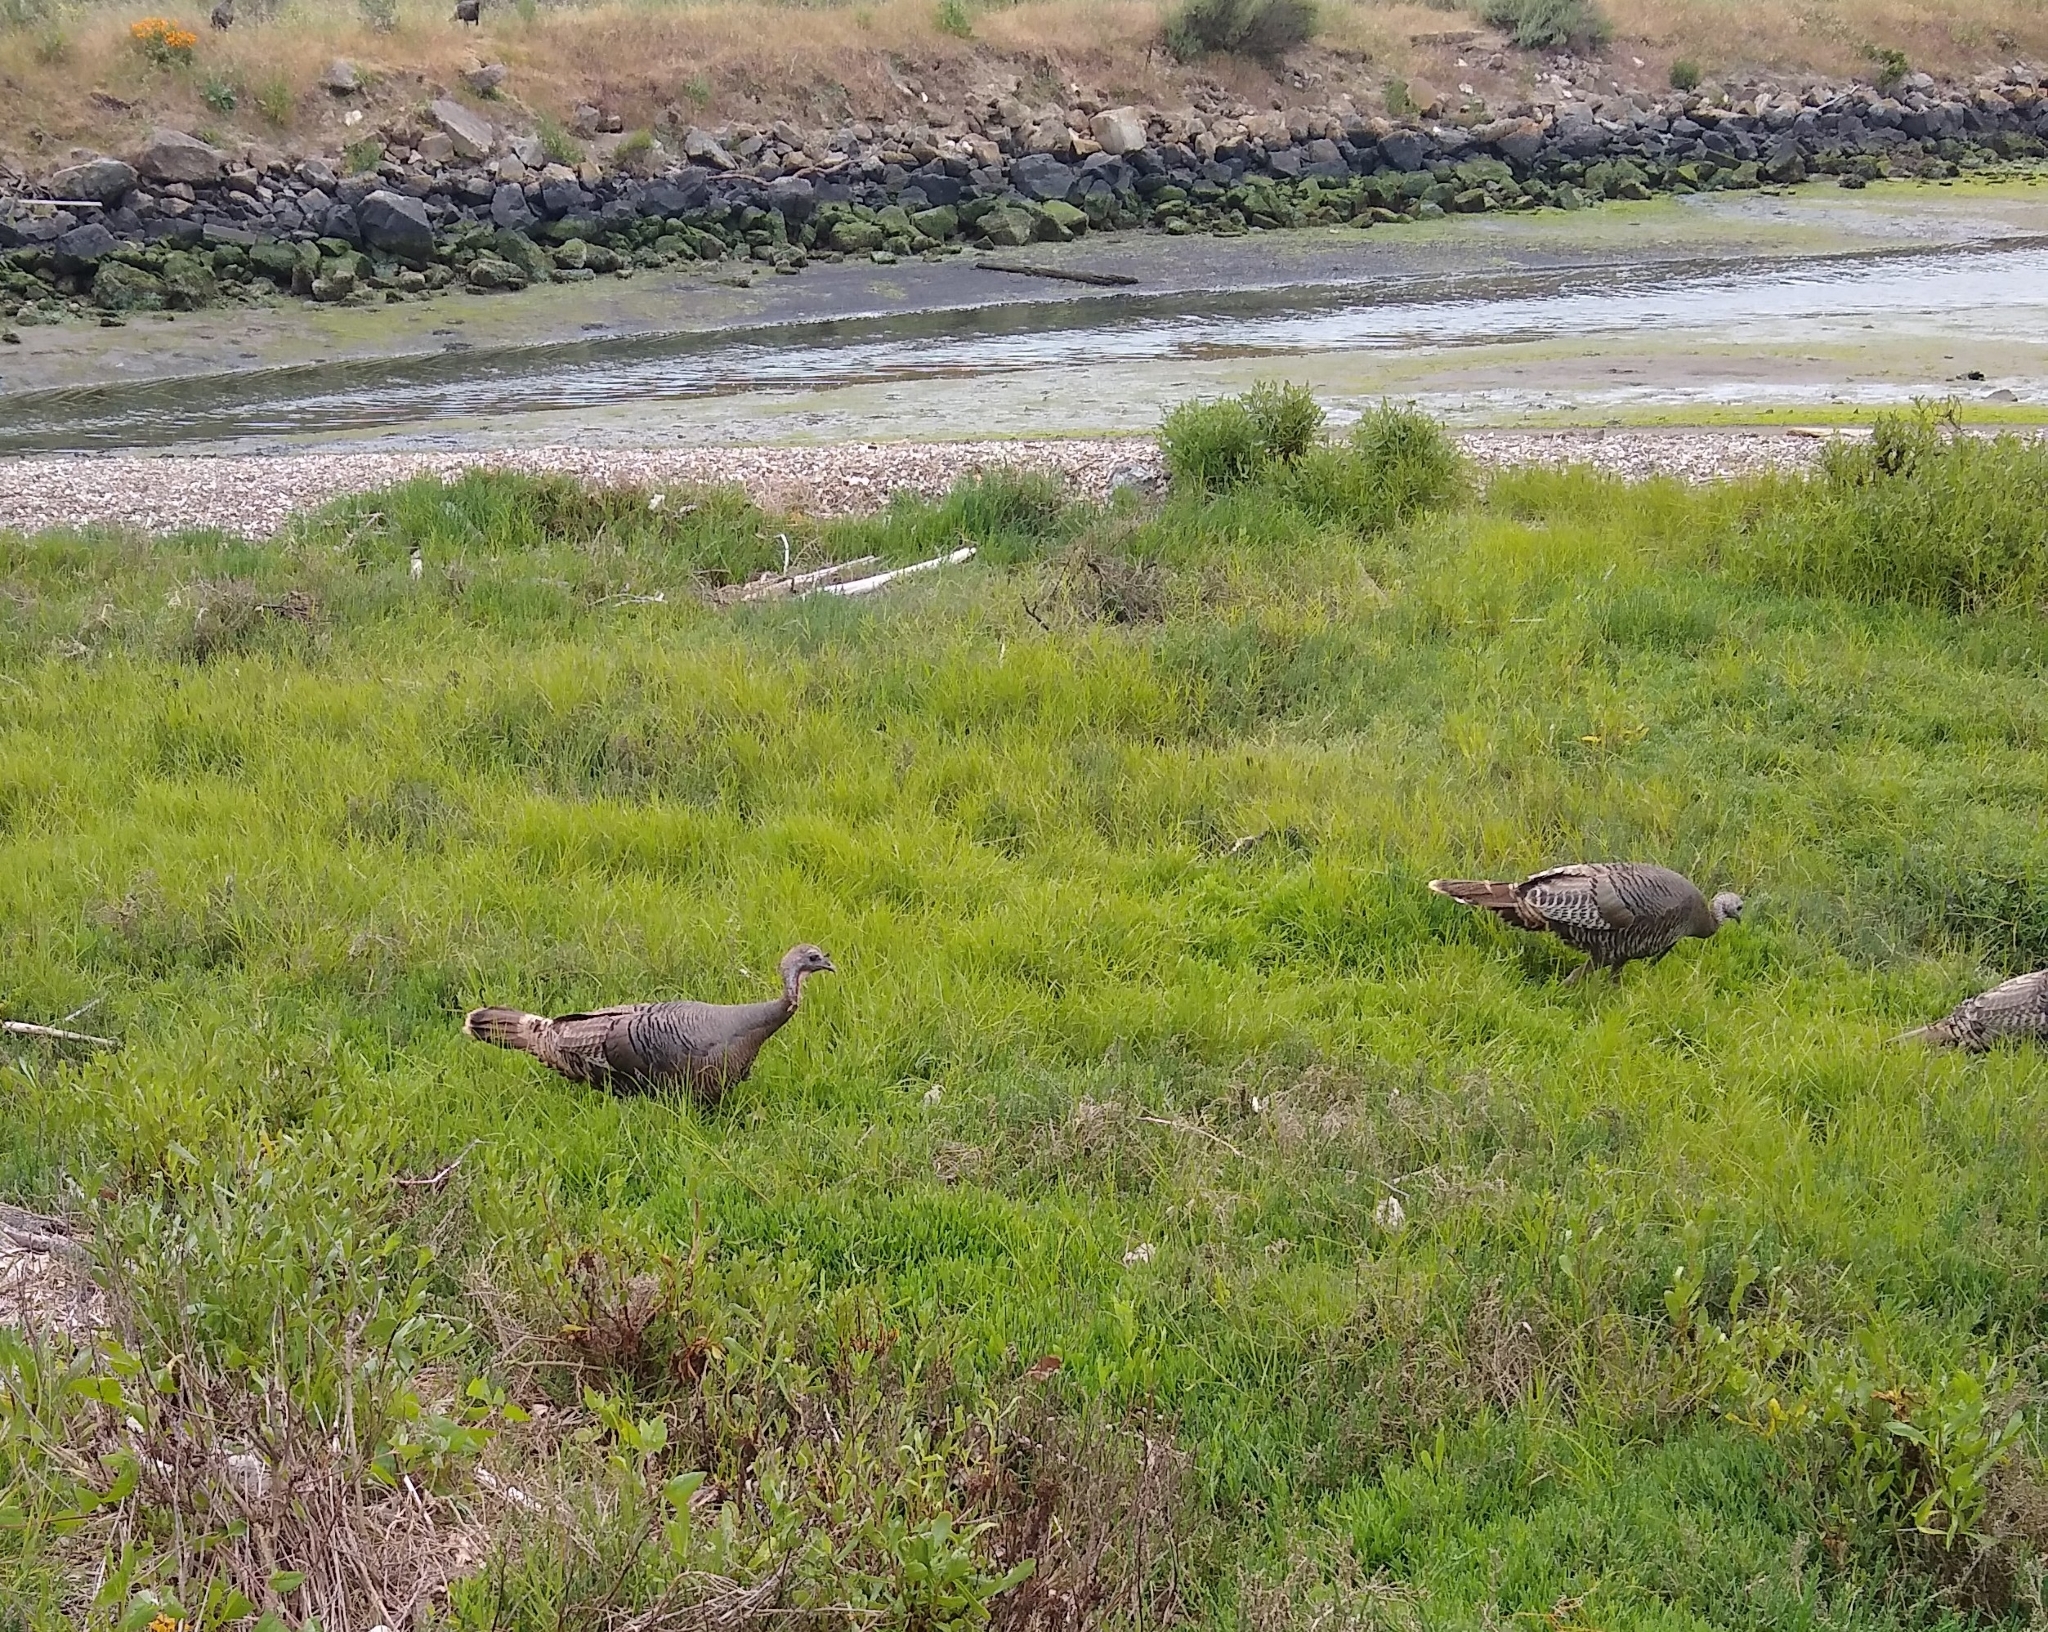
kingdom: Animalia
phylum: Chordata
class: Aves
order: Galliformes
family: Phasianidae
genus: Meleagris
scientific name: Meleagris gallopavo
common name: Wild turkey
